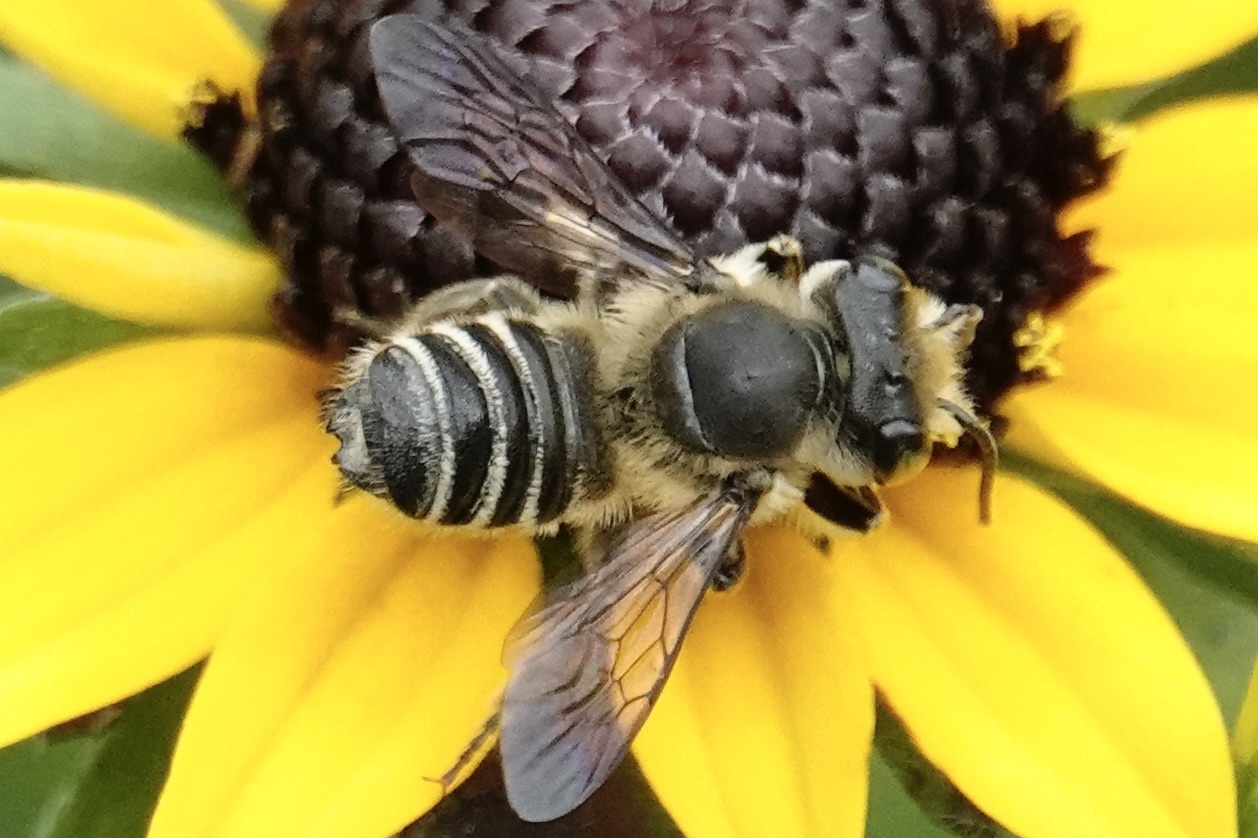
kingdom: Animalia
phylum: Arthropoda
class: Insecta
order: Hymenoptera
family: Megachilidae
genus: Megachile
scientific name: Megachile mendica
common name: Flat-tailed leafcutter
